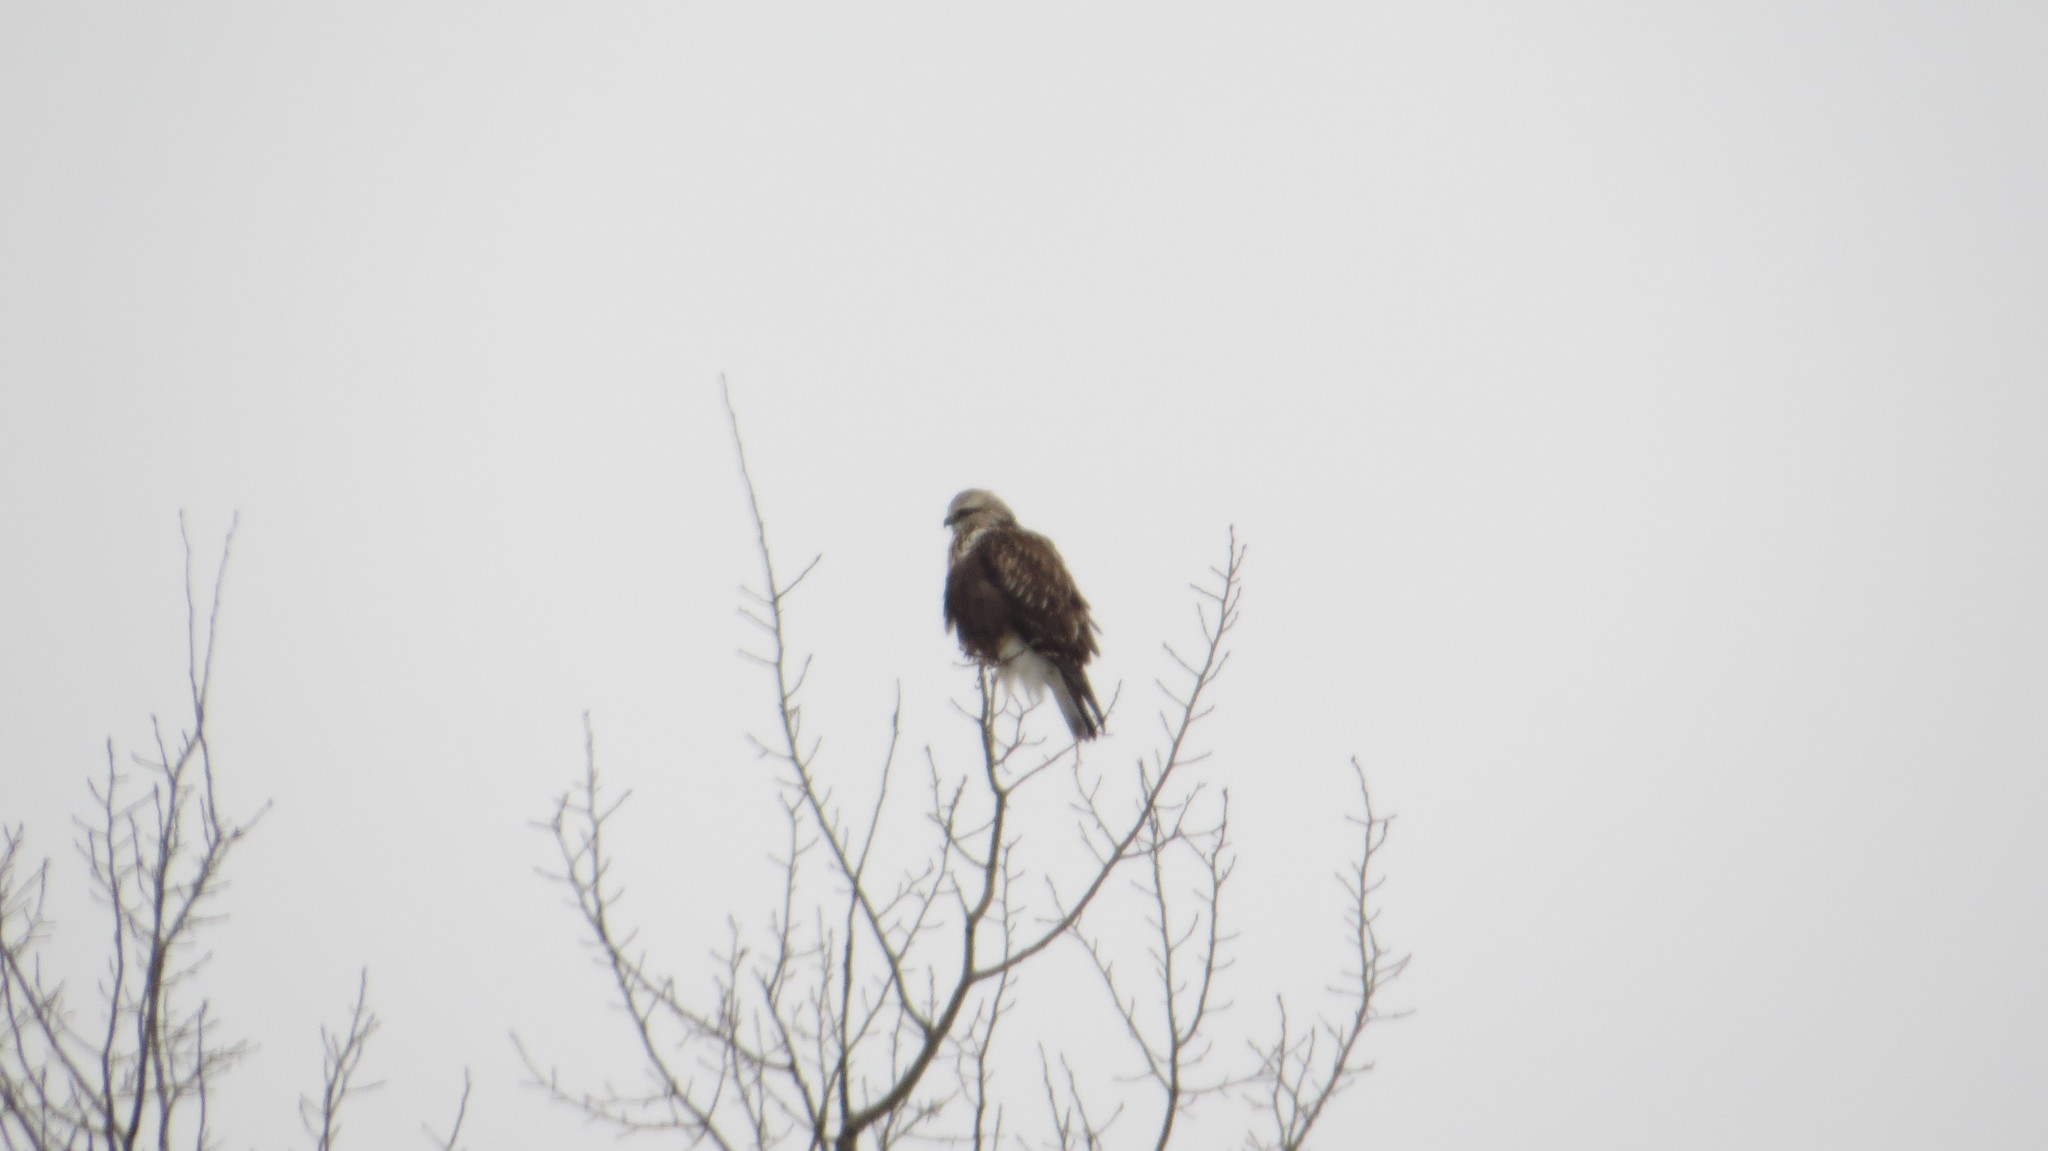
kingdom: Animalia
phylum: Chordata
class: Aves
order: Accipitriformes
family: Accipitridae
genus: Buteo
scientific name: Buteo lagopus
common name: Rough-legged buzzard
